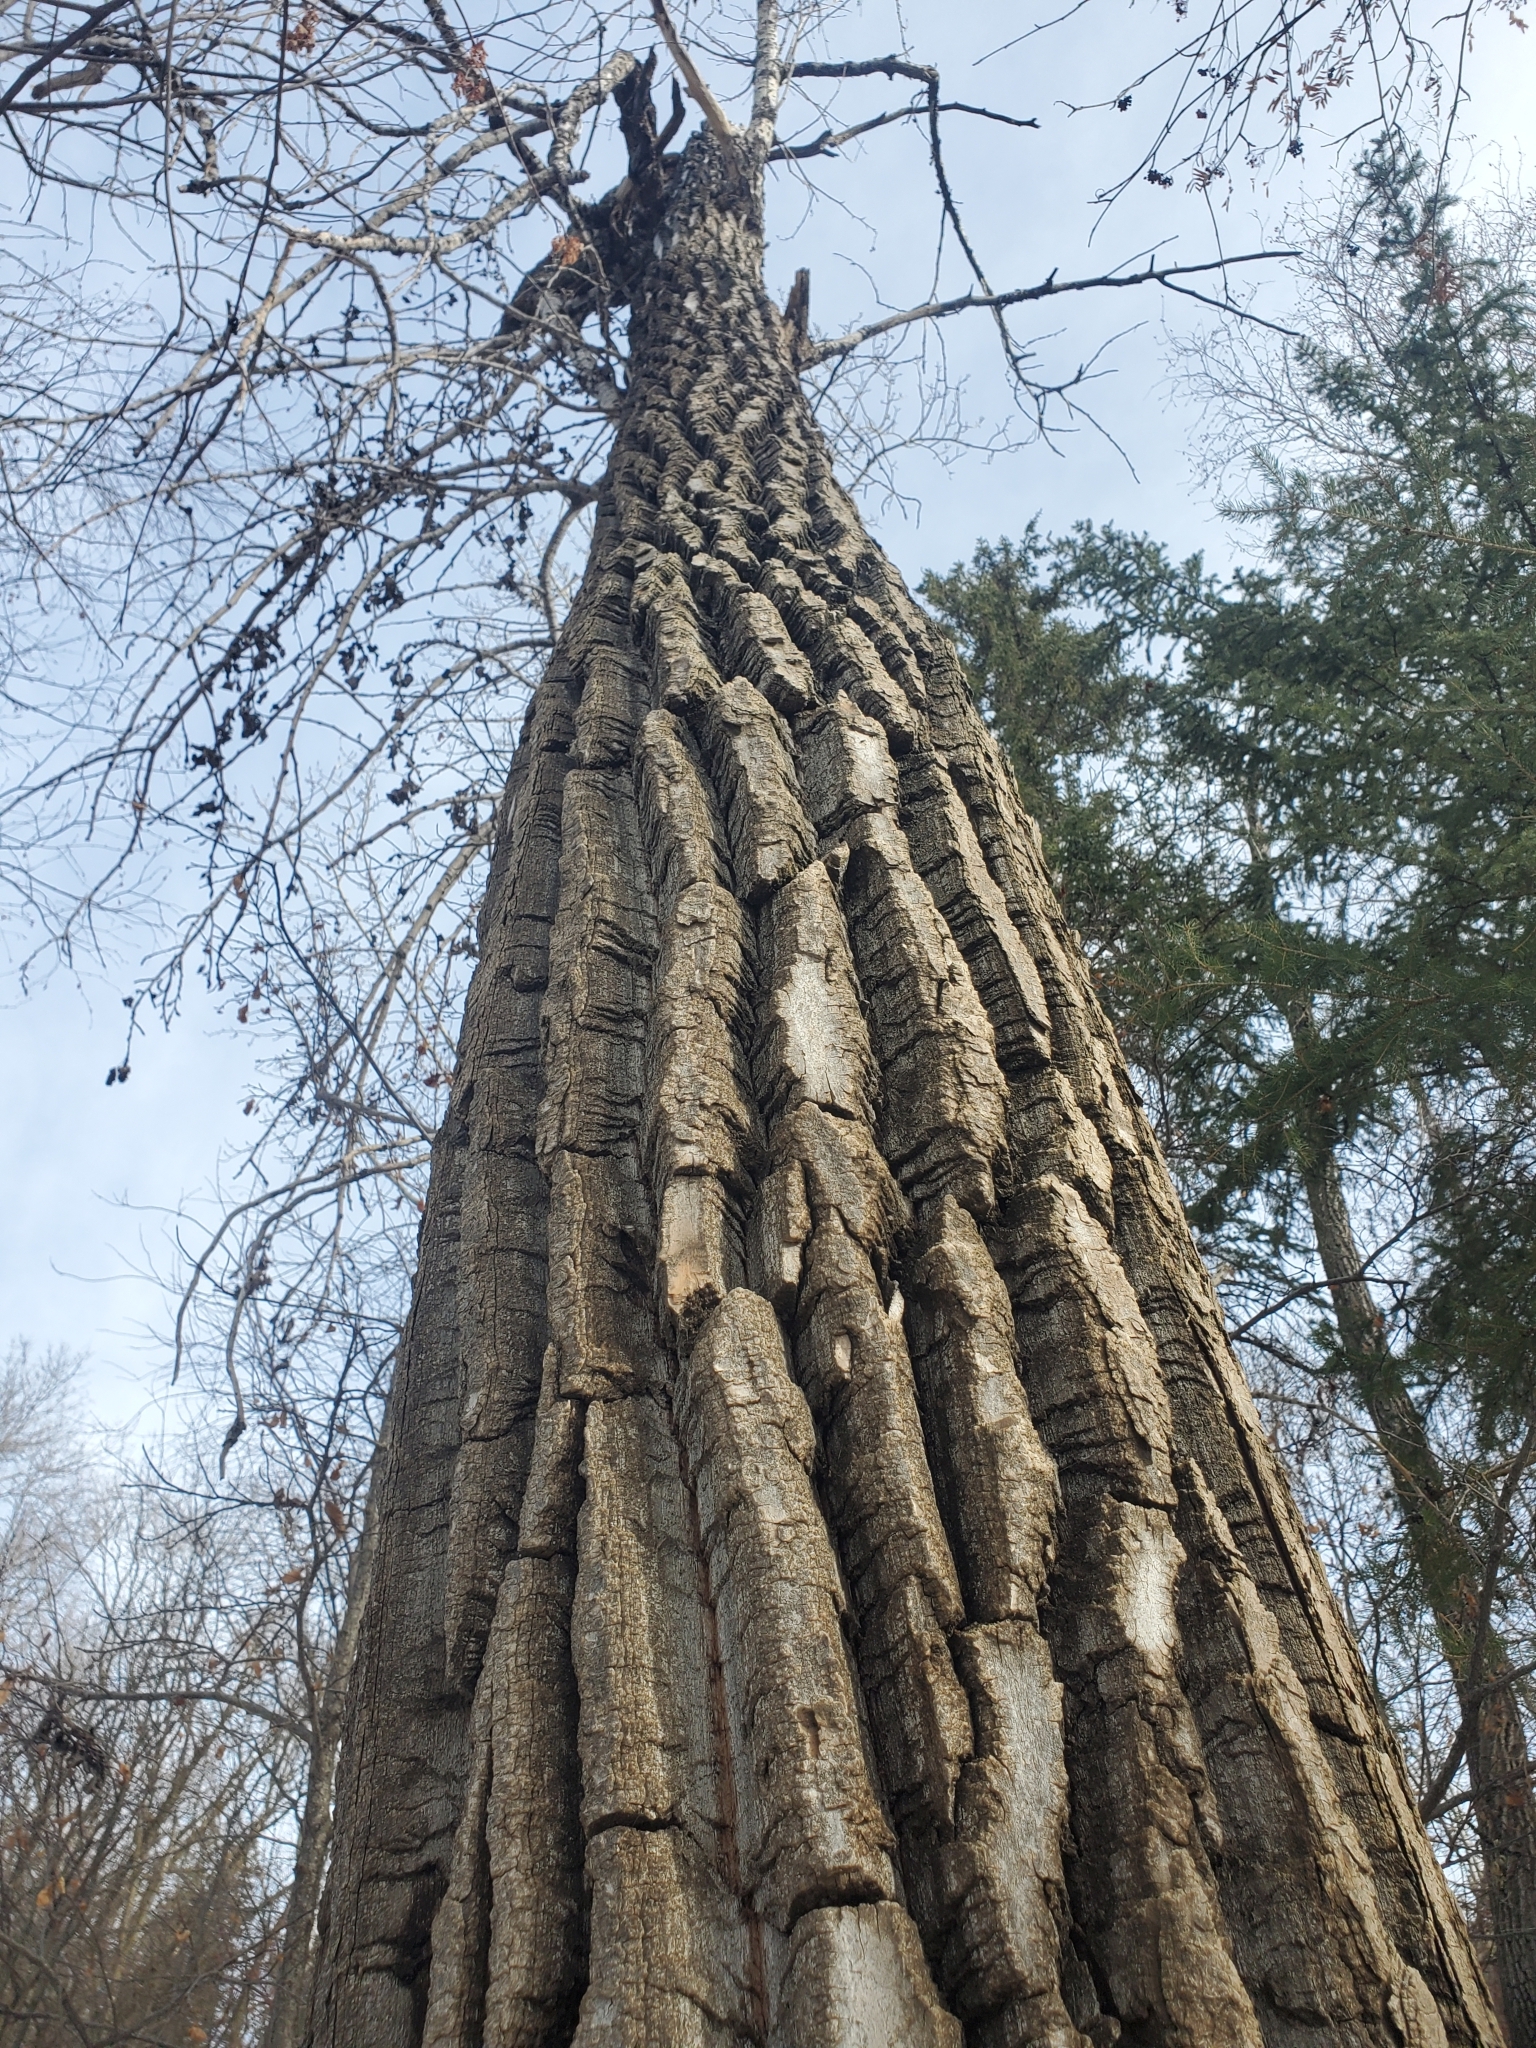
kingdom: Plantae
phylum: Tracheophyta
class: Magnoliopsida
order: Malpighiales
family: Salicaceae
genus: Populus
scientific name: Populus balsamifera
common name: Balsam poplar
